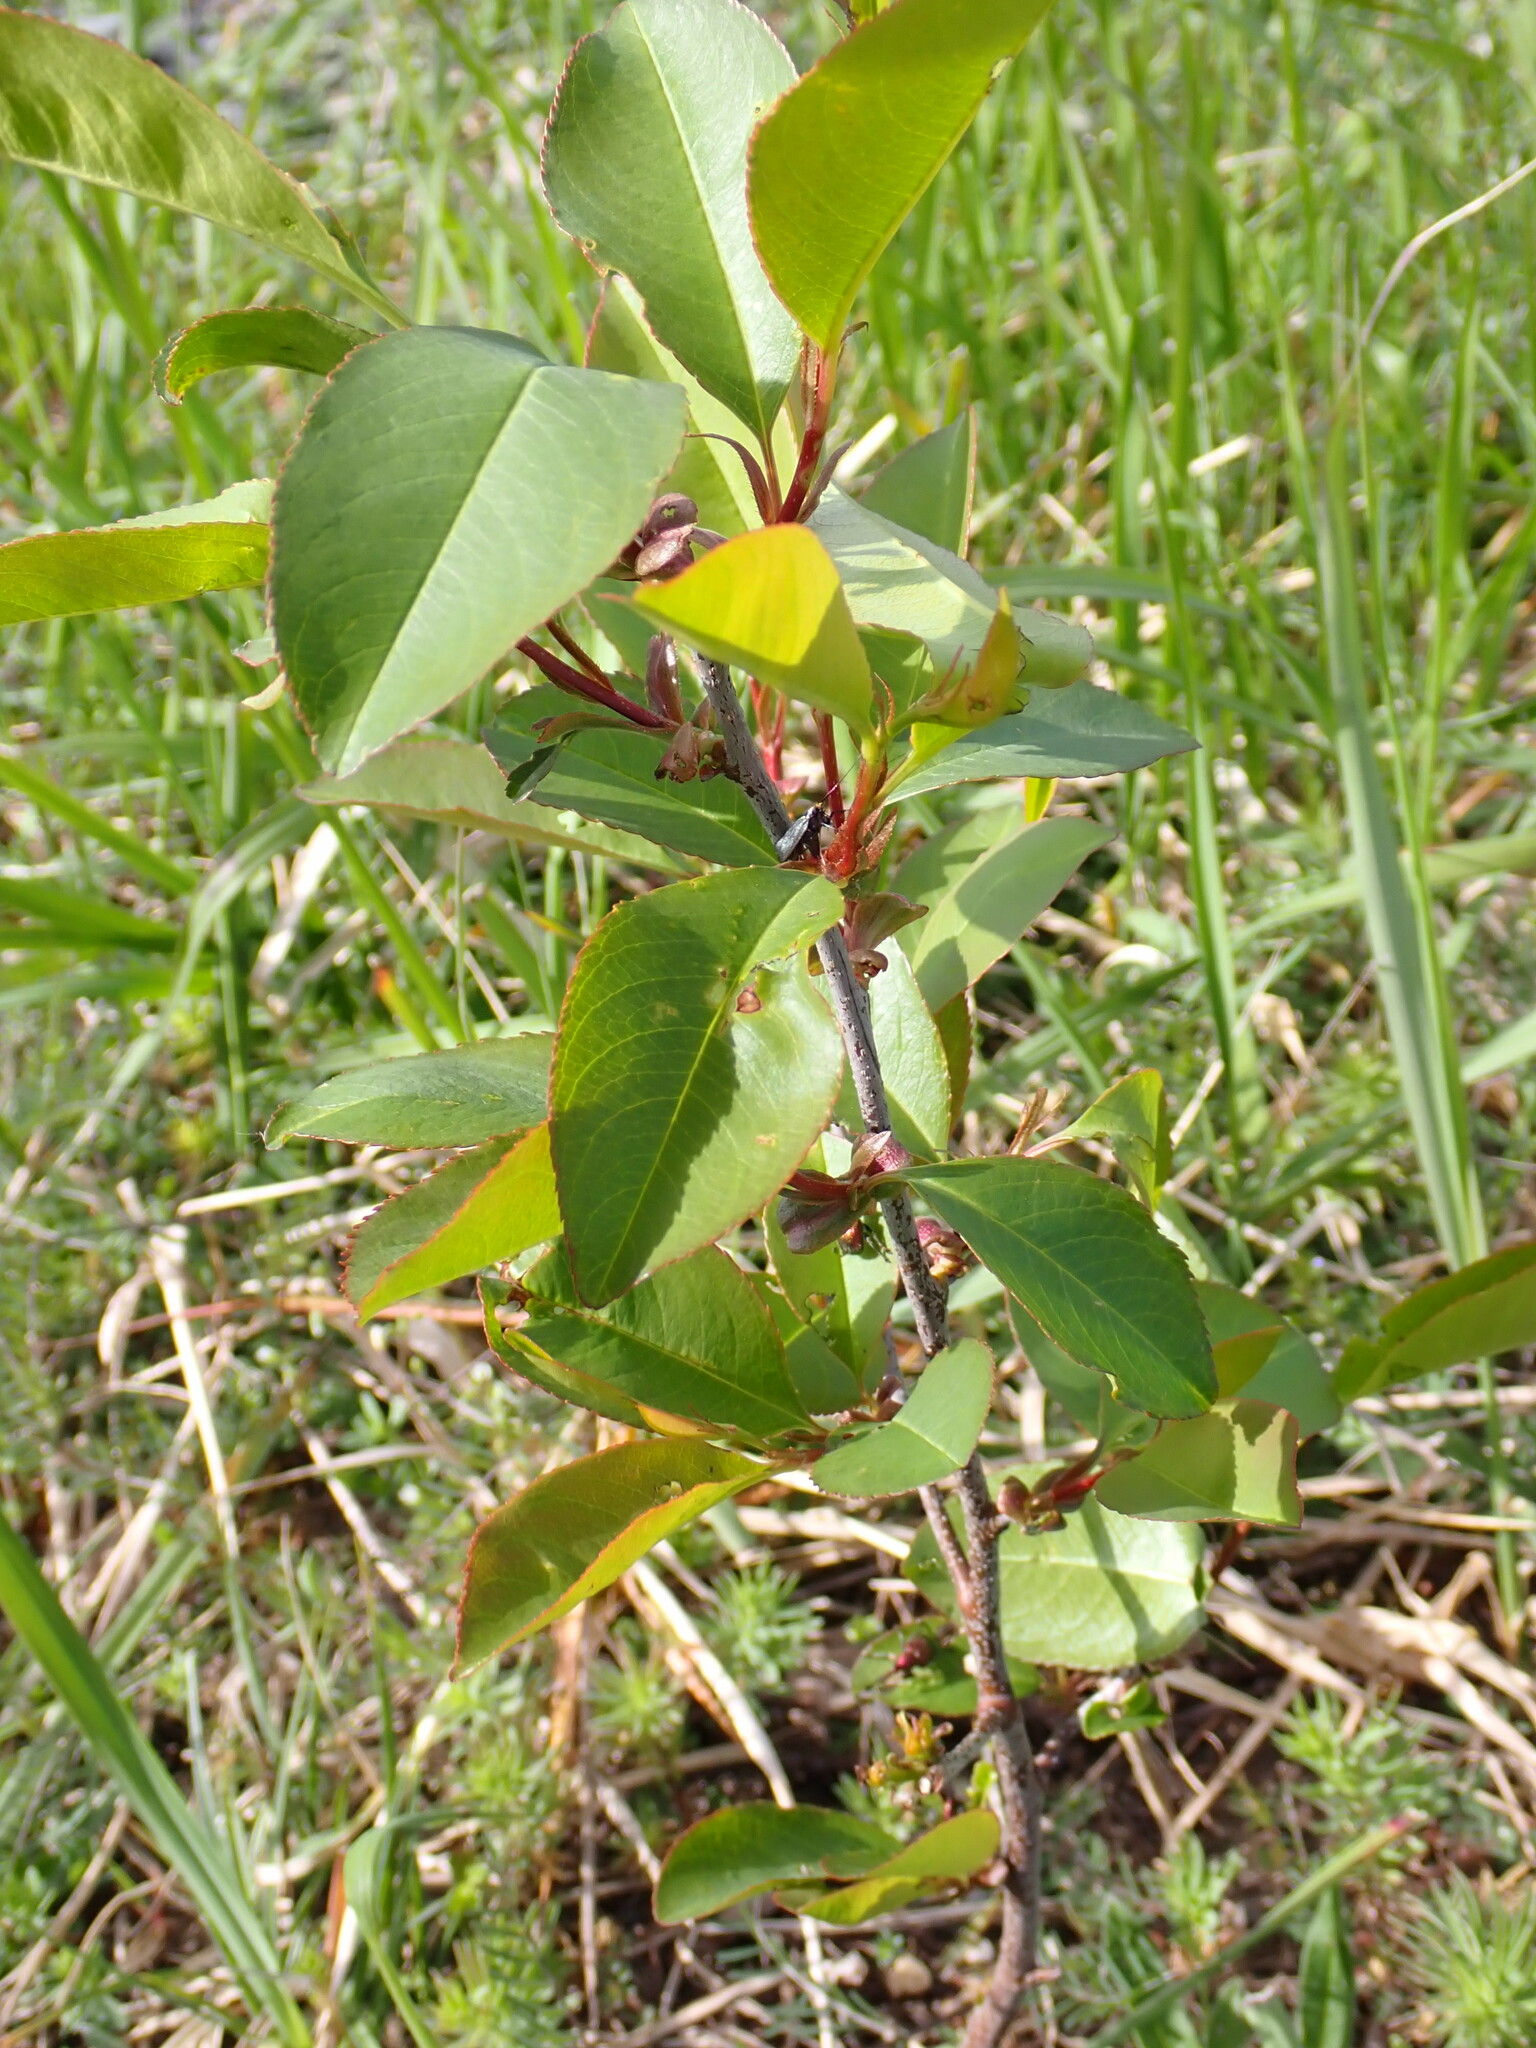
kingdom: Plantae
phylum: Tracheophyta
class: Magnoliopsida
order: Rosales
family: Rosaceae
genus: Prunus
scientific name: Prunus serotina
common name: Black cherry
